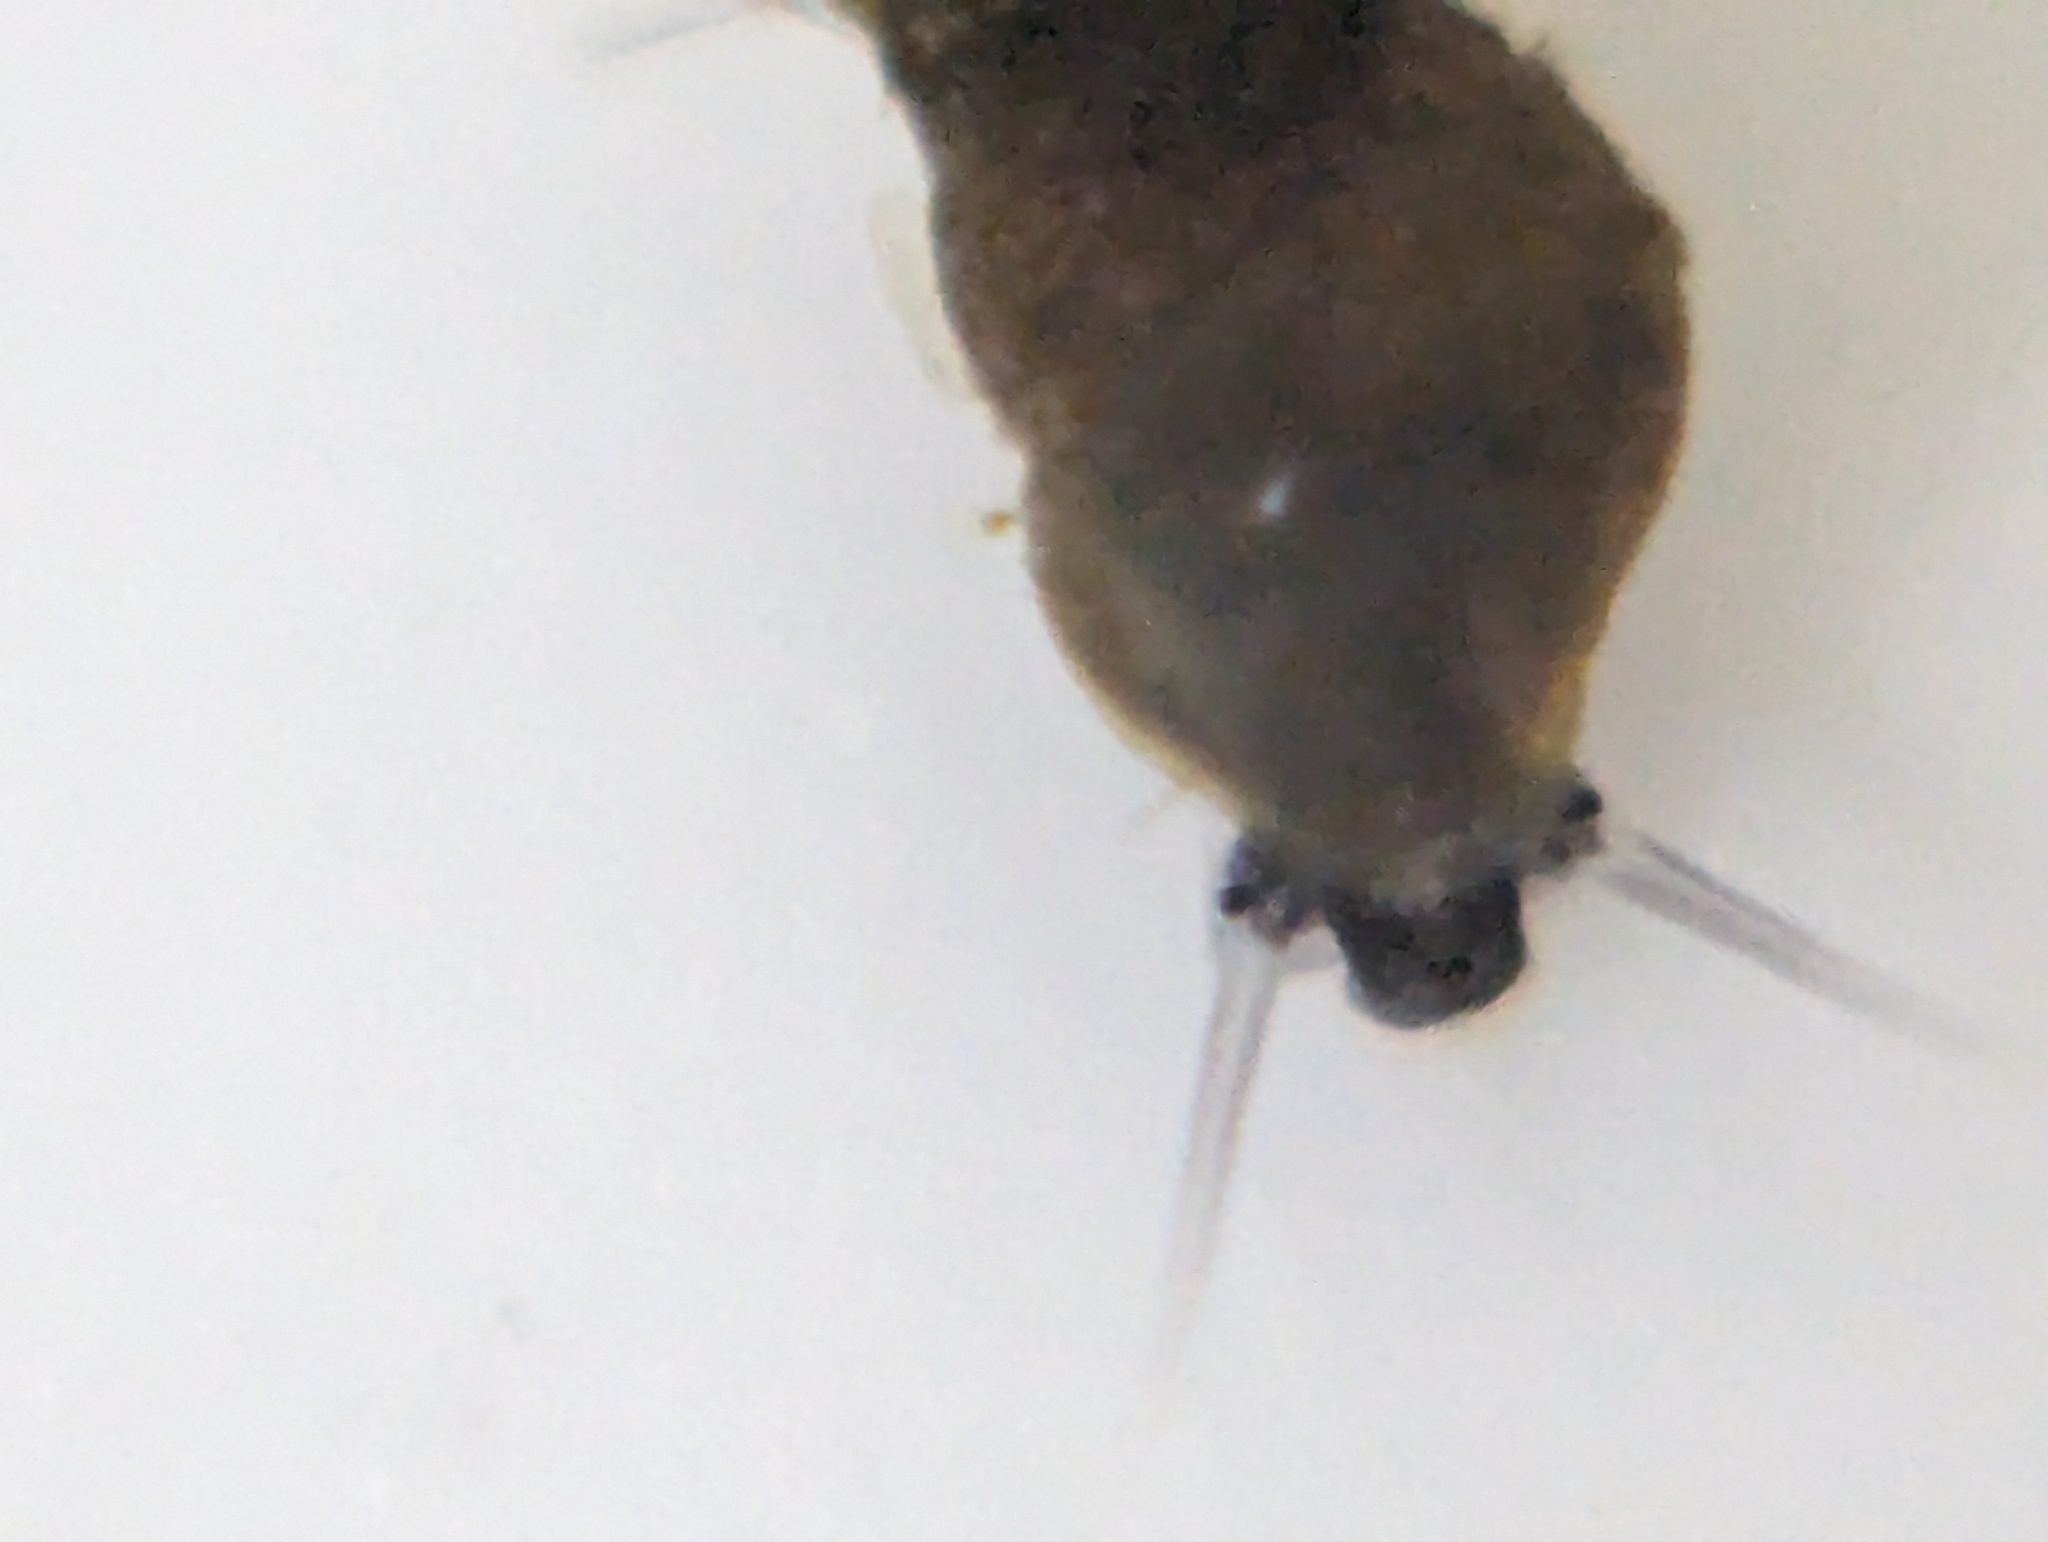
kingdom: Animalia
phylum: Mollusca
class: Gastropoda
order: Littorinimorpha
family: Tateidae
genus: Potamopyrgus
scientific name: Potamopyrgus antipodarum
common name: Jenkins' spire snail
